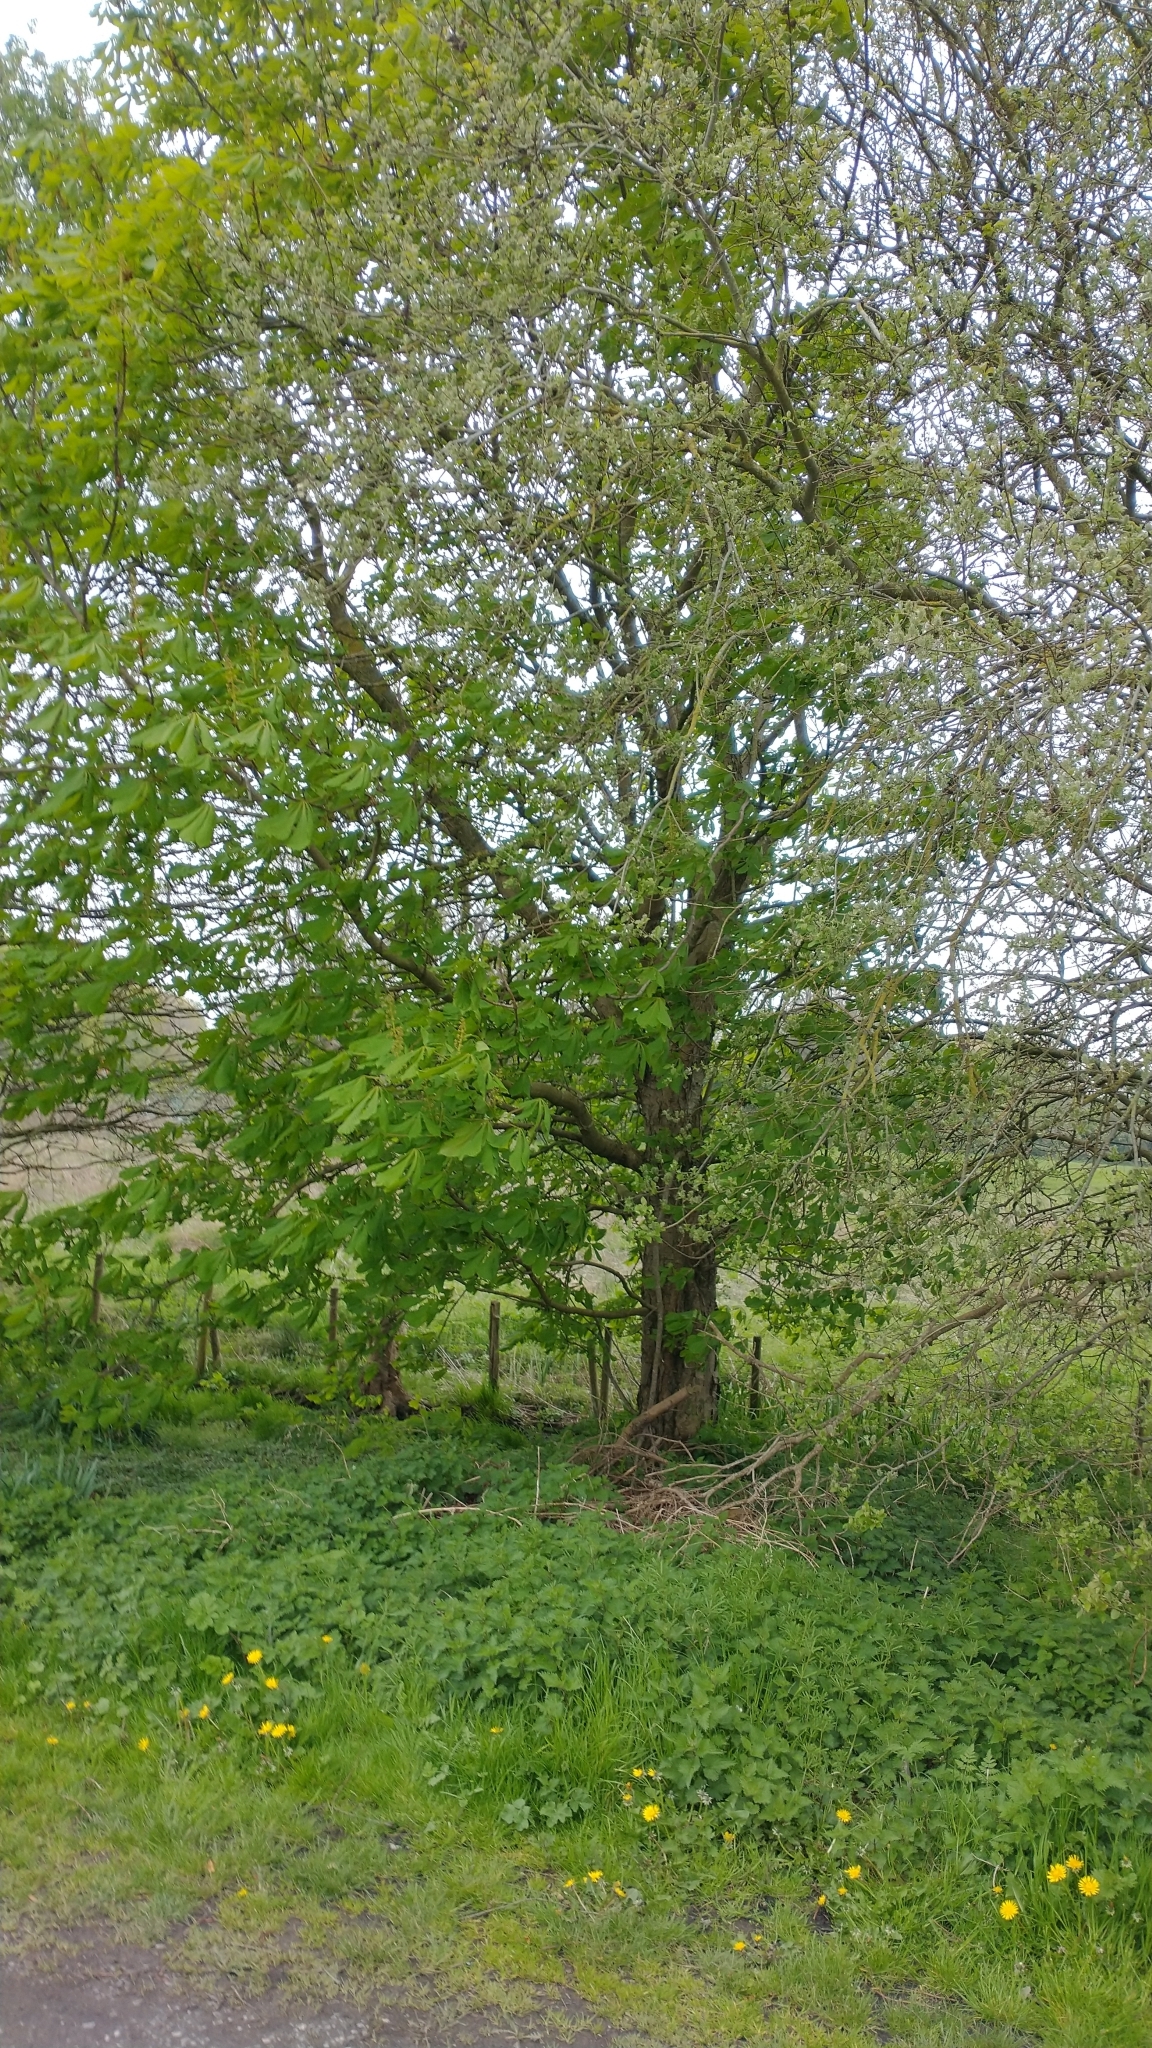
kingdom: Plantae
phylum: Tracheophyta
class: Magnoliopsida
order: Sapindales
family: Sapindaceae
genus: Aesculus
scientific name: Aesculus hippocastanum
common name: Horse-chestnut
